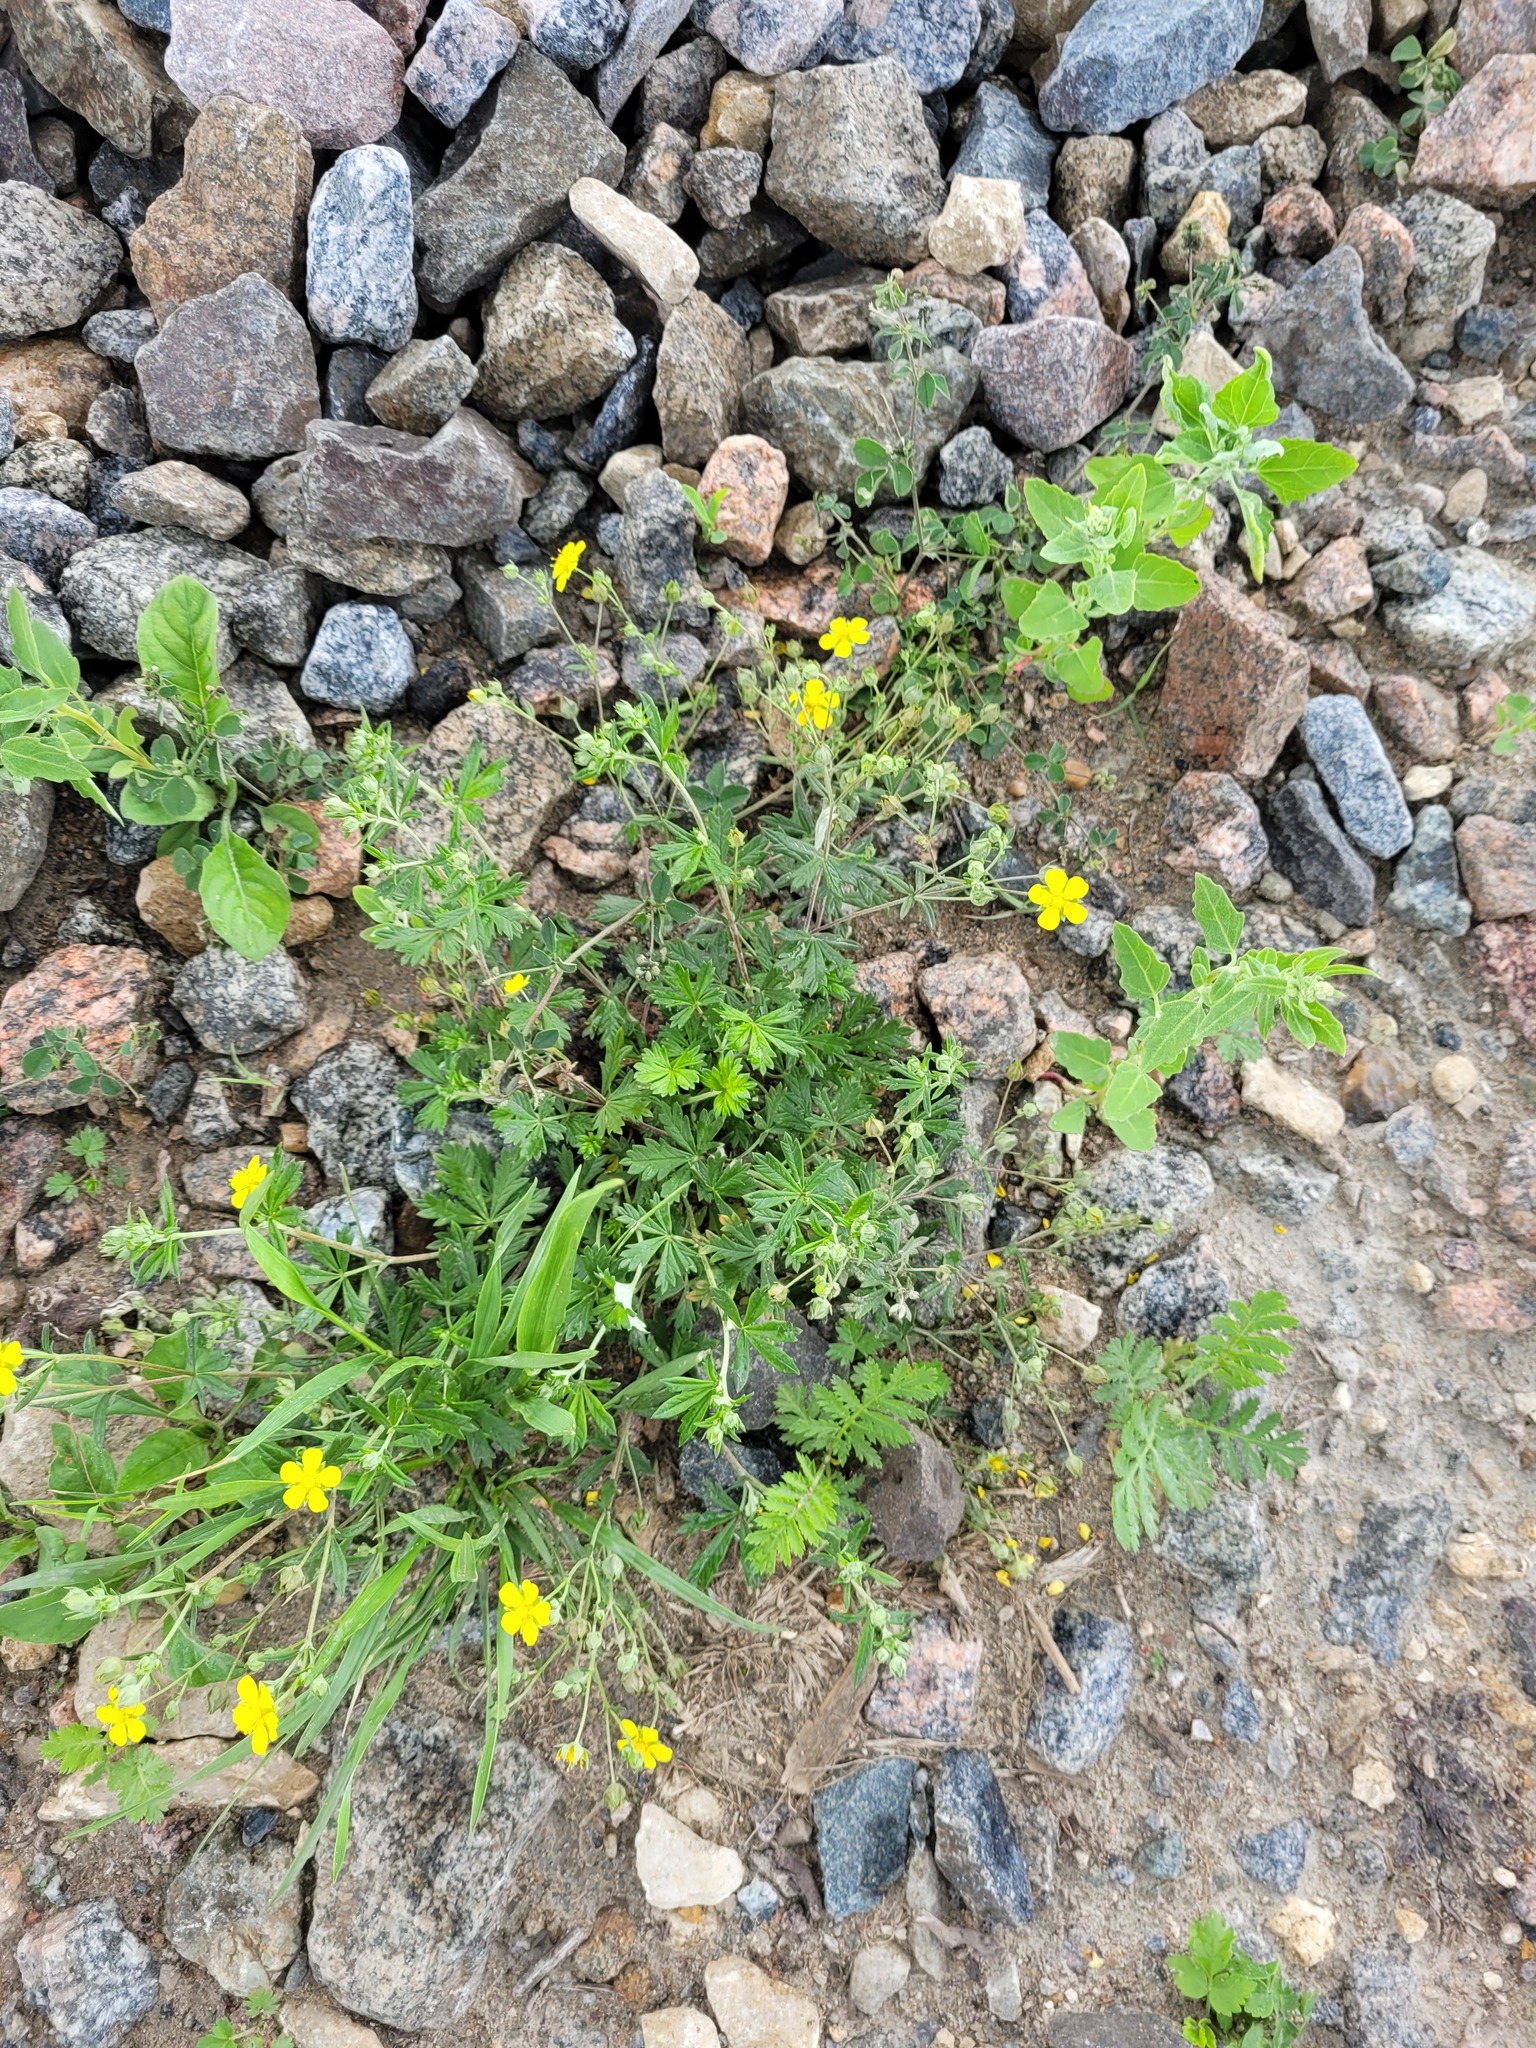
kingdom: Plantae
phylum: Tracheophyta
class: Magnoliopsida
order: Rosales
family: Rosaceae
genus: Potentilla
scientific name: Potentilla argentea
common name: Hoary cinquefoil
